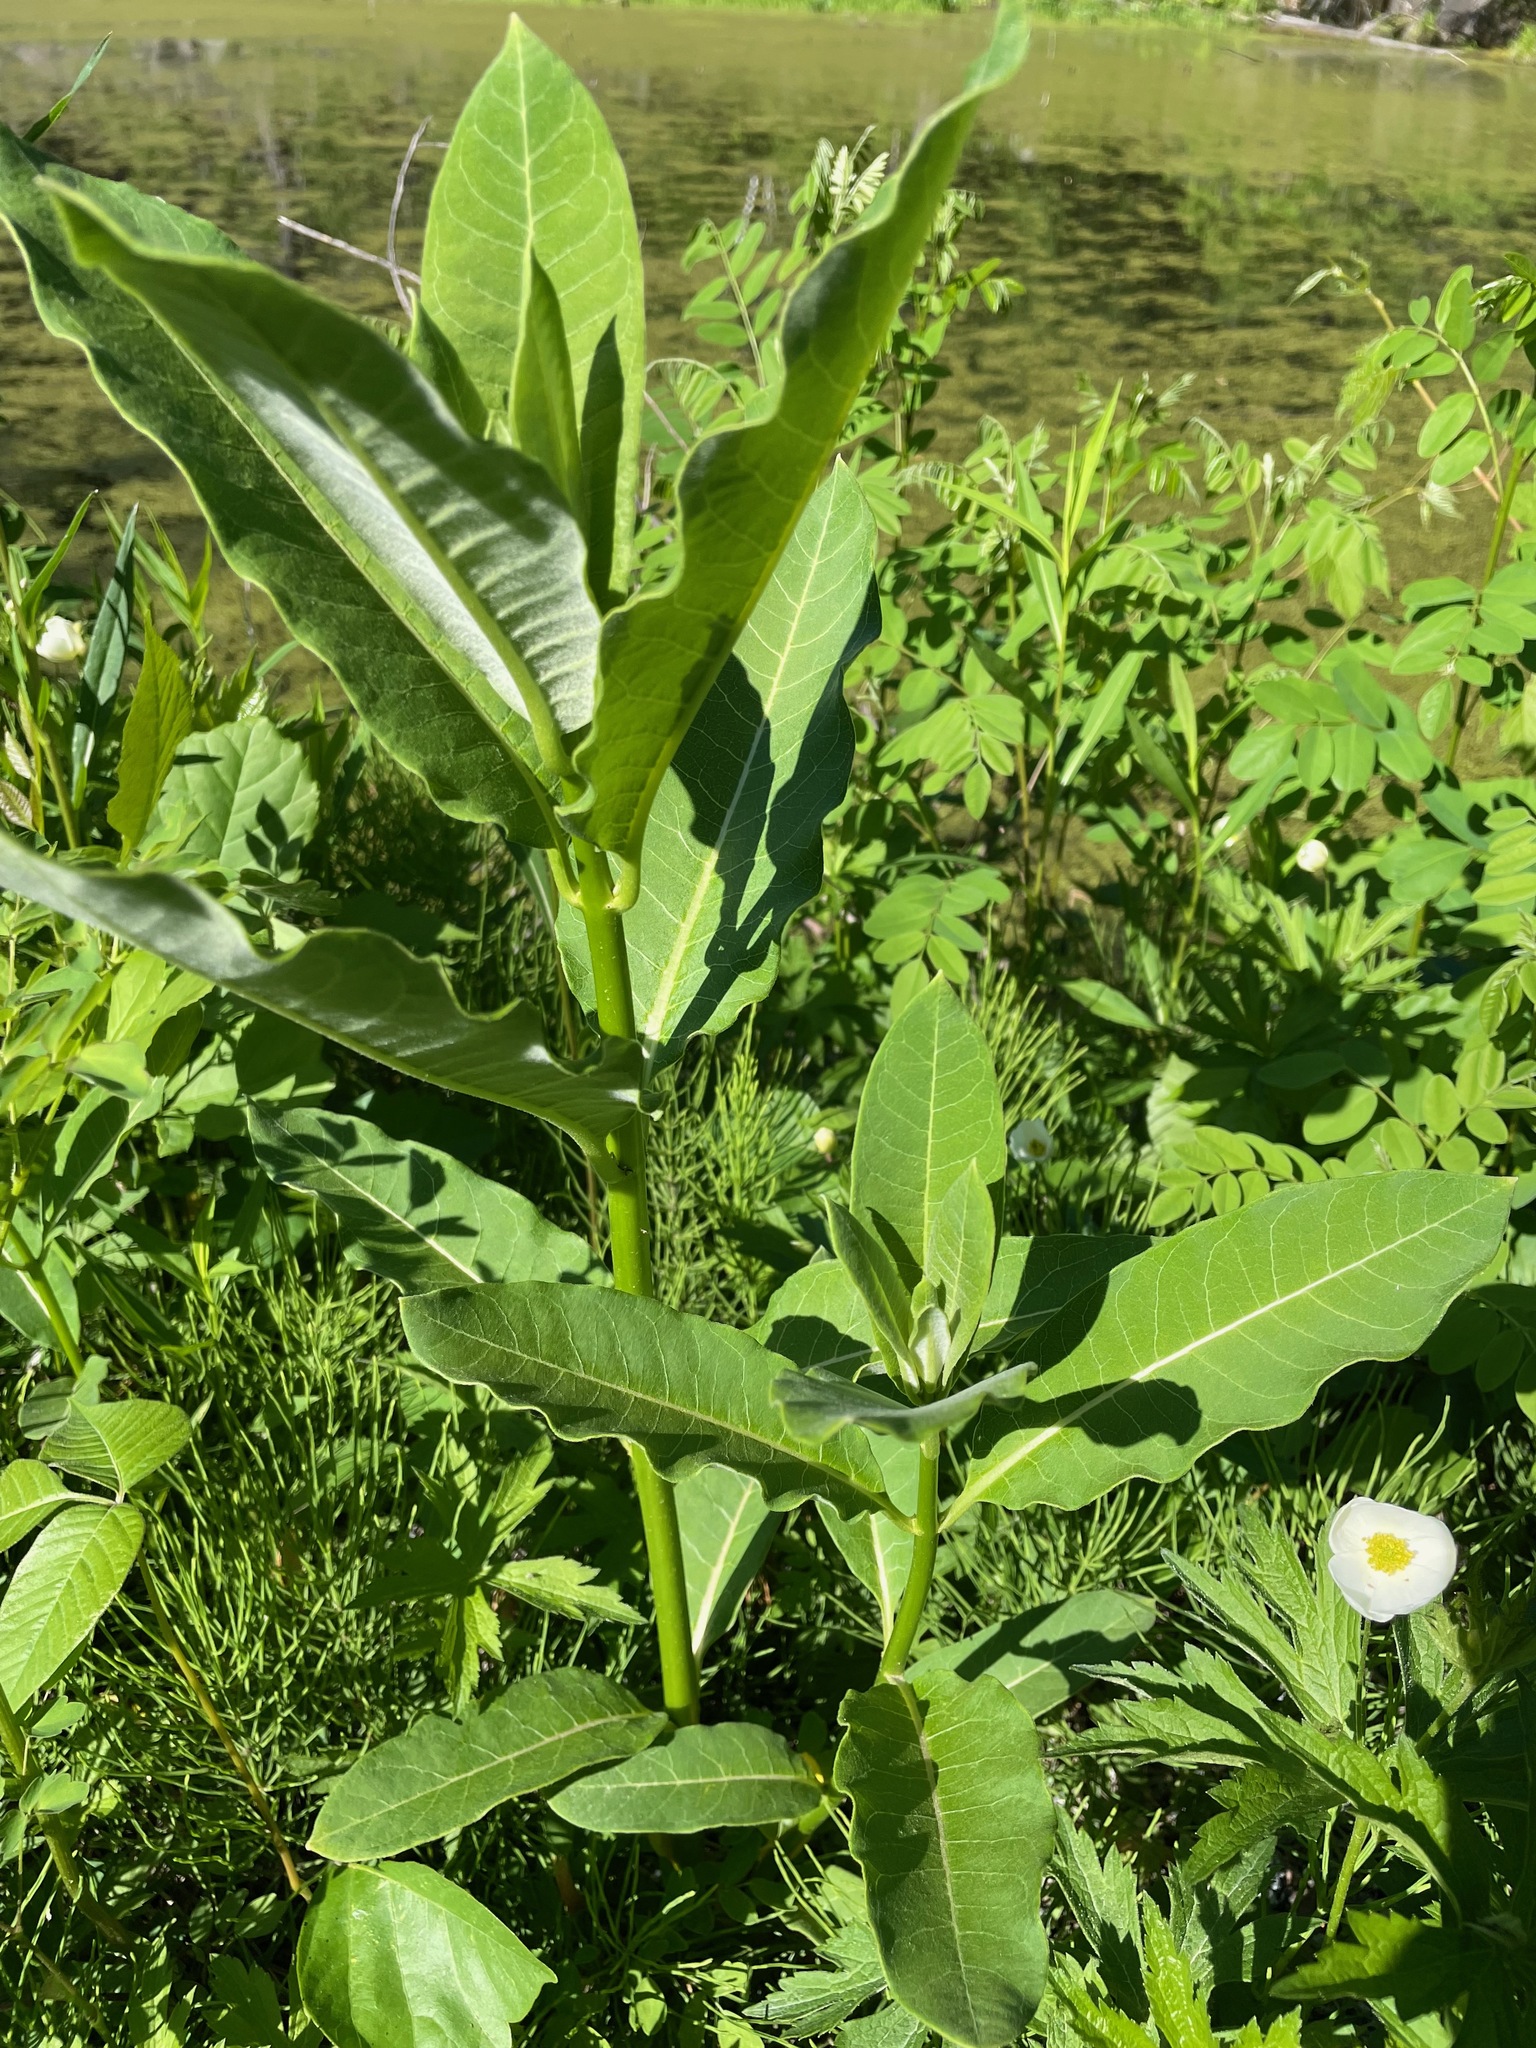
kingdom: Plantae
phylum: Tracheophyta
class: Magnoliopsida
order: Gentianales
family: Apocynaceae
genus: Asclepias
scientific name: Asclepias syriaca
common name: Common milkweed
